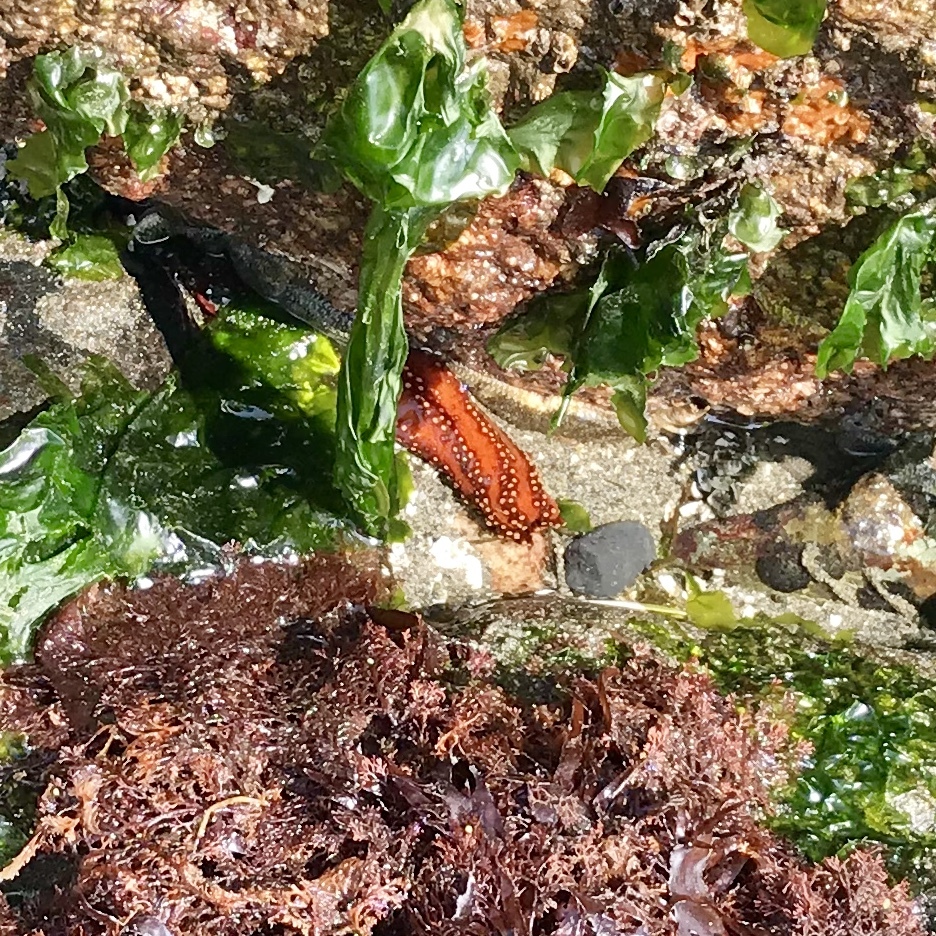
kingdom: Animalia
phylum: Echinodermata
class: Holothuroidea
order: Dendrochirotida
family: Cucumariidae
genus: Cucumaria
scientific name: Cucumaria miniata
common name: Orange sea cucumber
